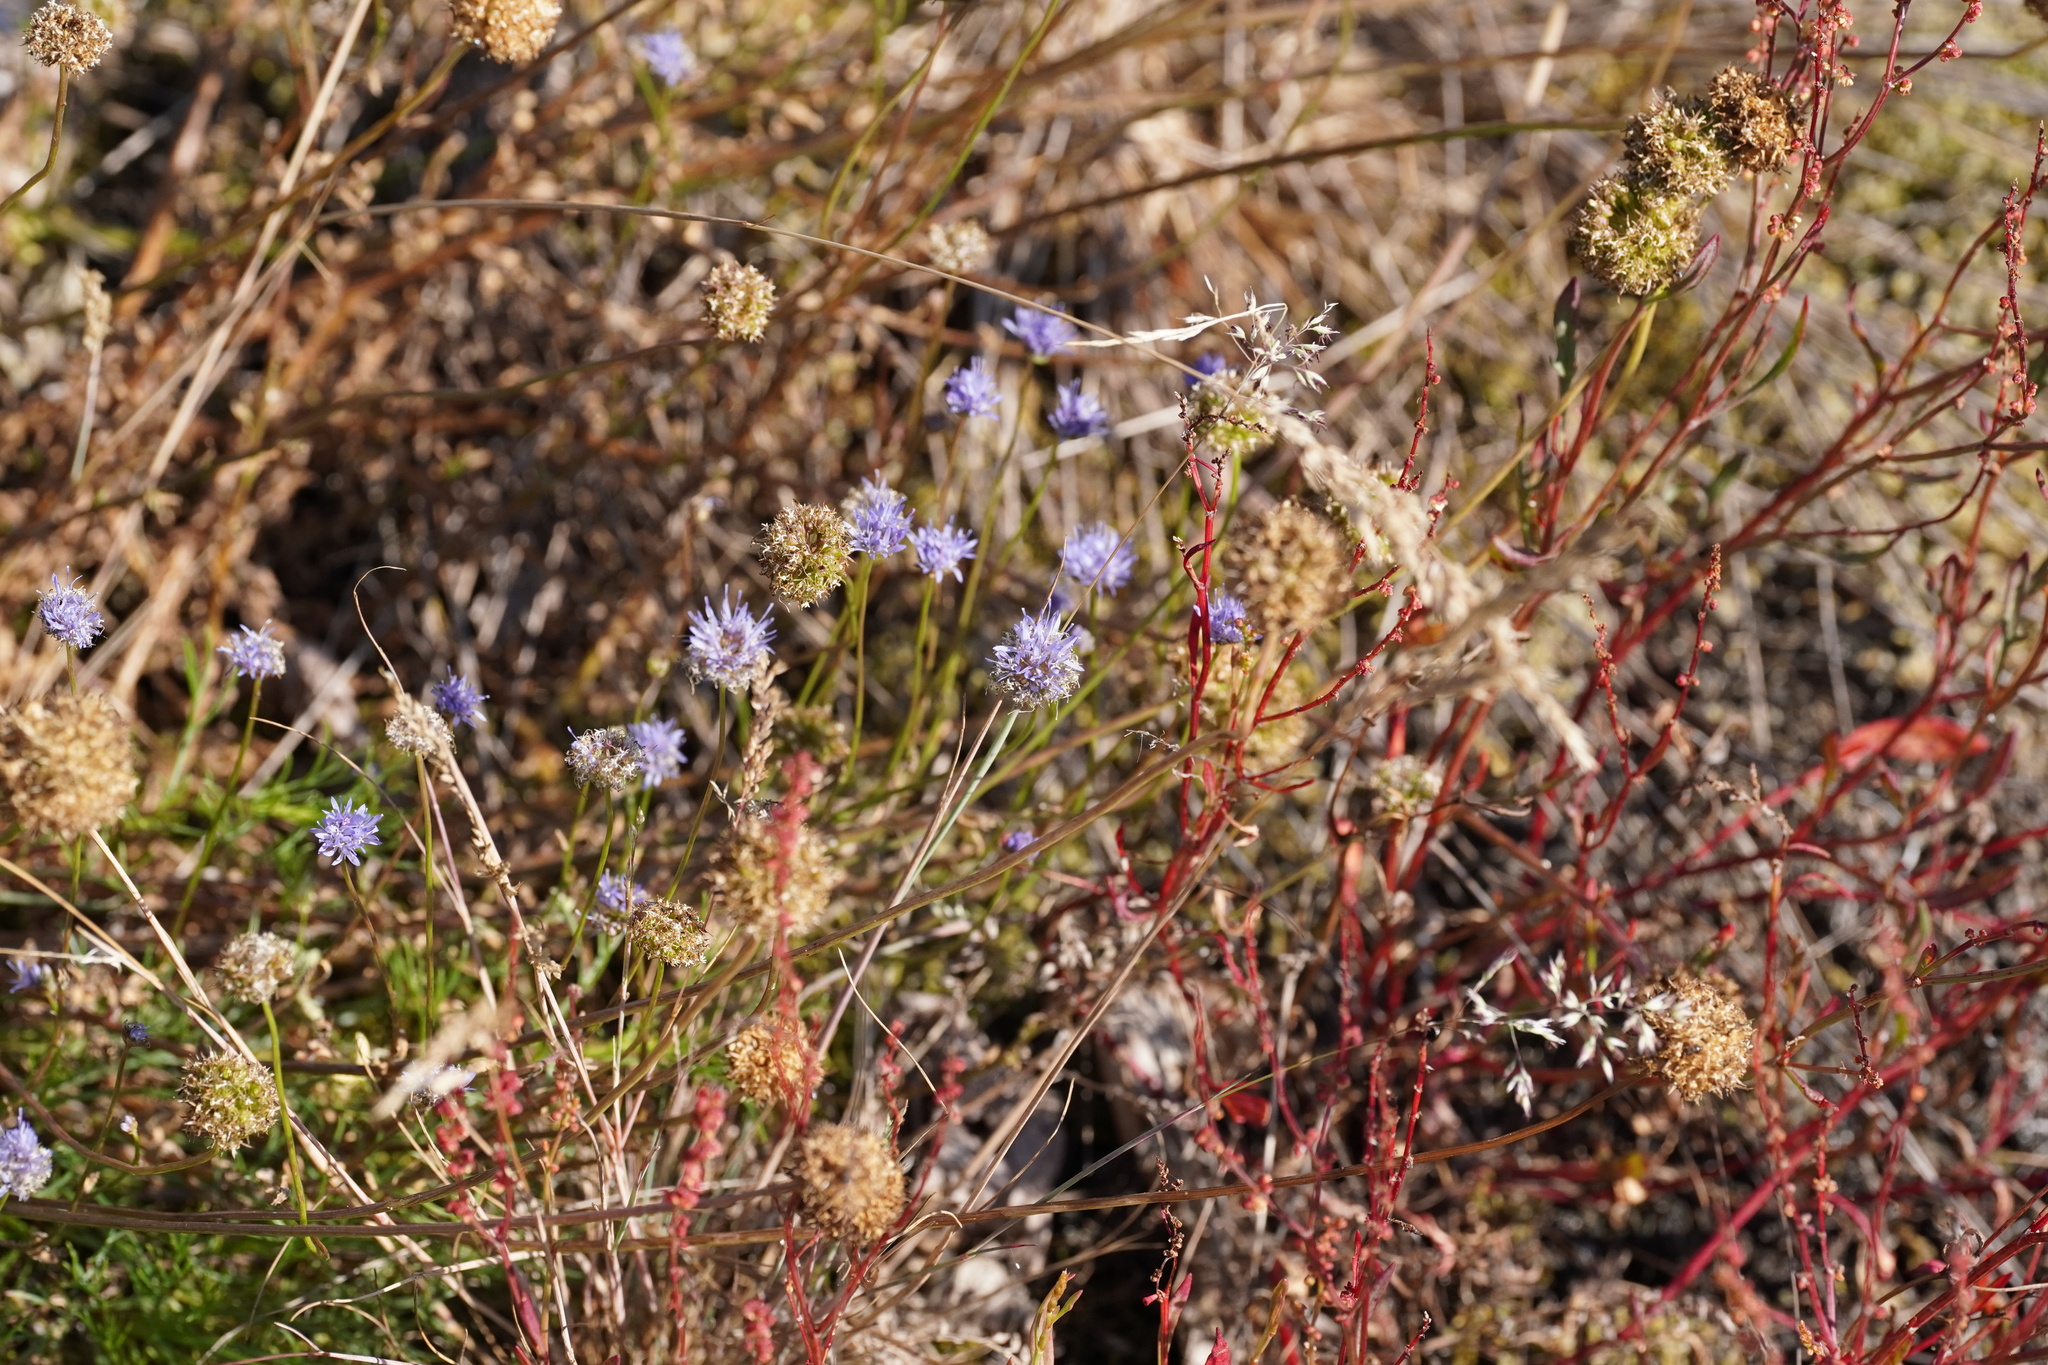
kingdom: Plantae
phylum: Tracheophyta
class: Magnoliopsida
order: Asterales
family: Campanulaceae
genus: Jasione
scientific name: Jasione montana
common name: Sheep's-bit
